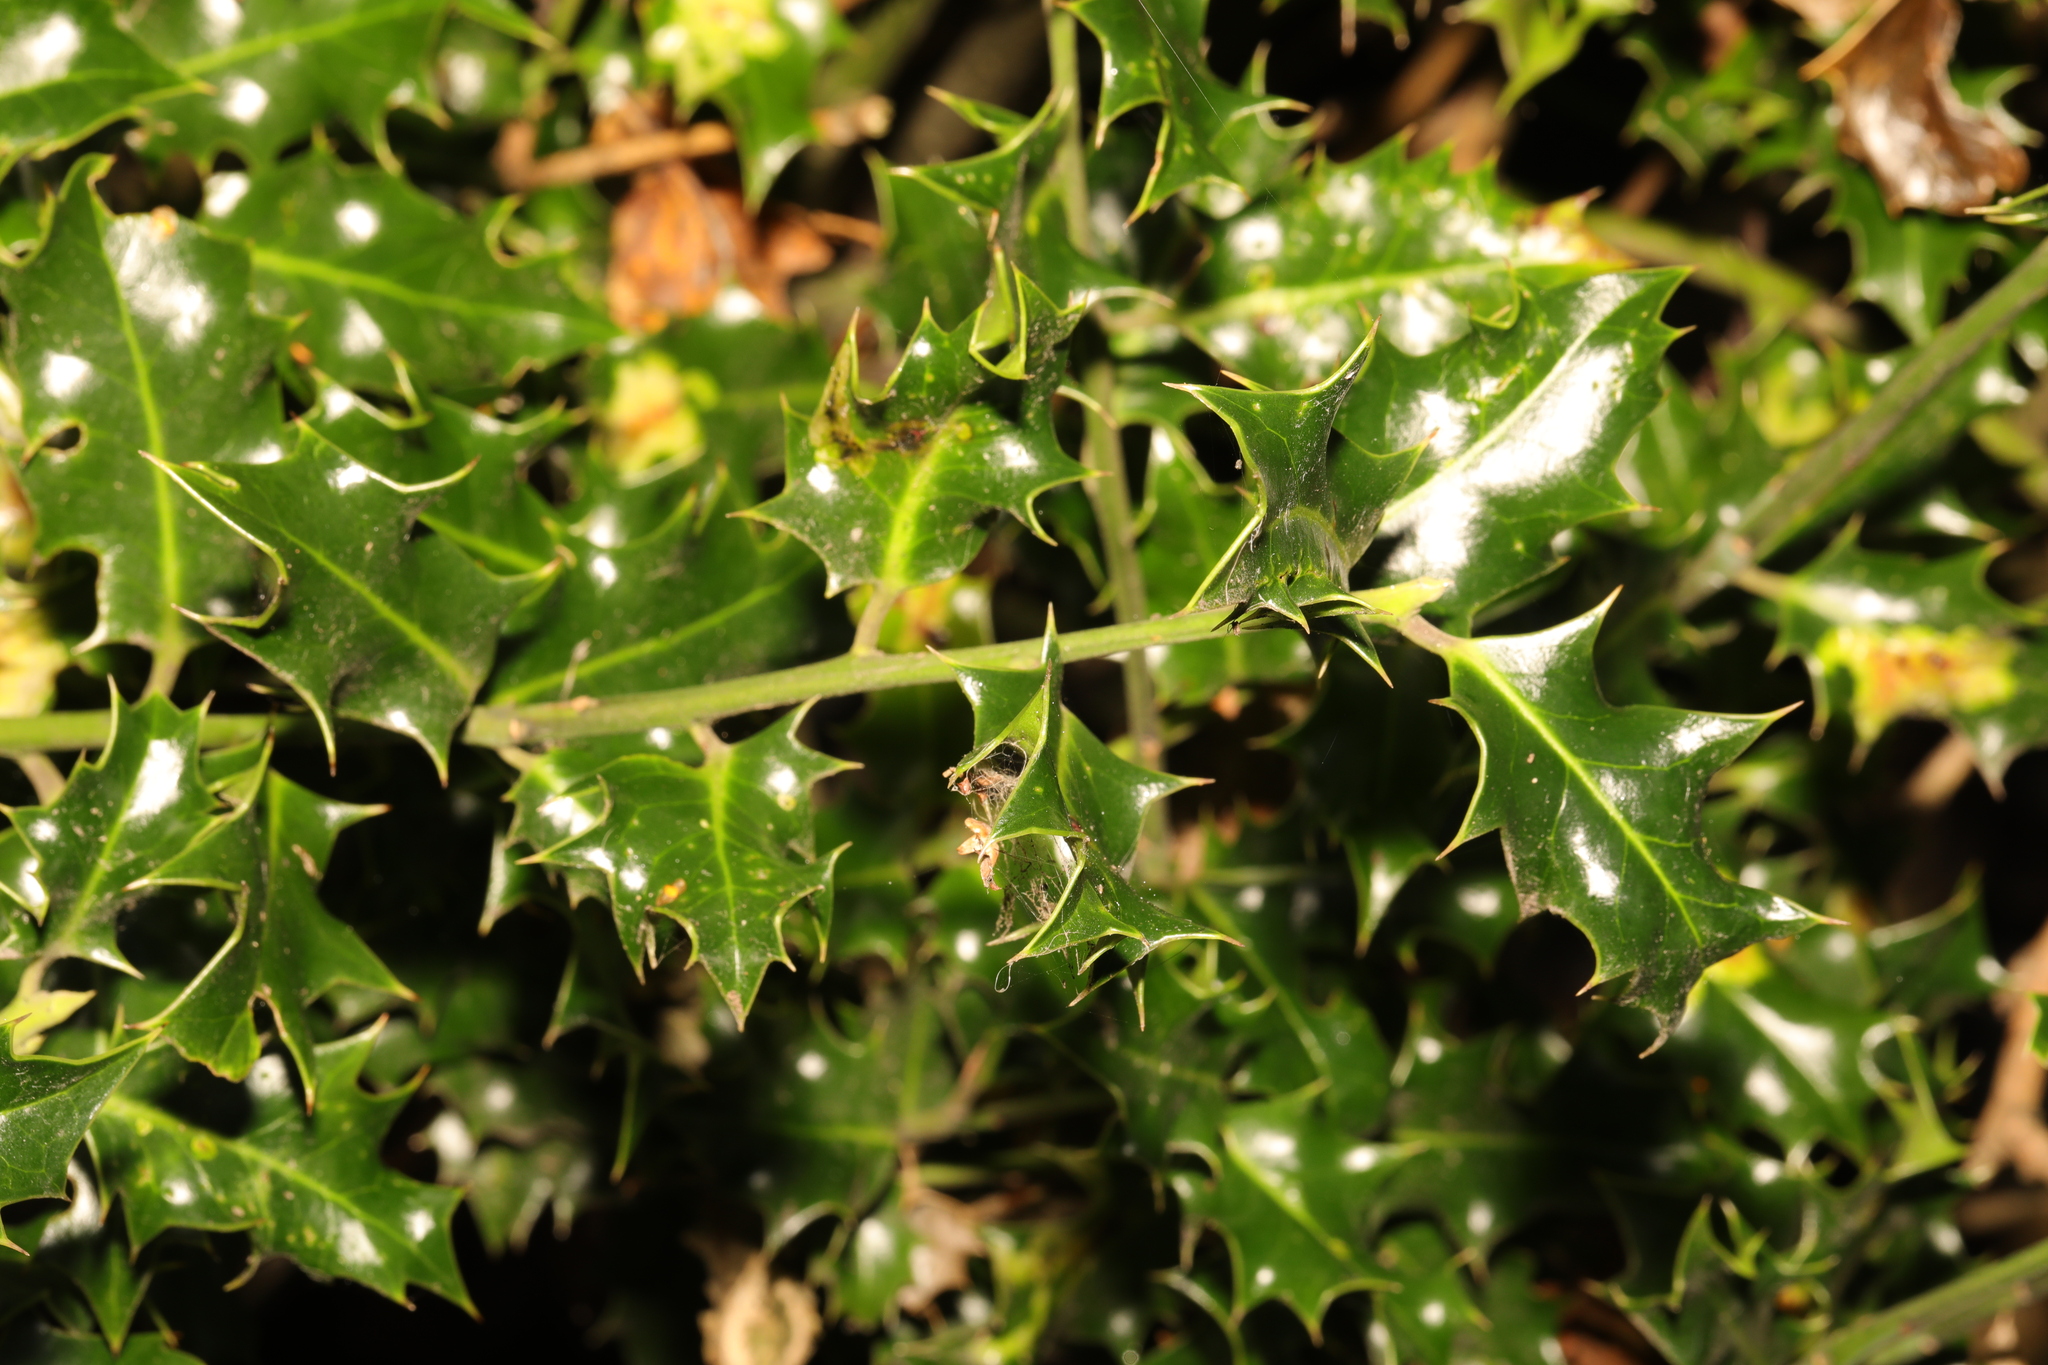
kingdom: Plantae
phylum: Tracheophyta
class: Magnoliopsida
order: Aquifoliales
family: Aquifoliaceae
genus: Ilex
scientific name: Ilex aquifolium
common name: English holly
